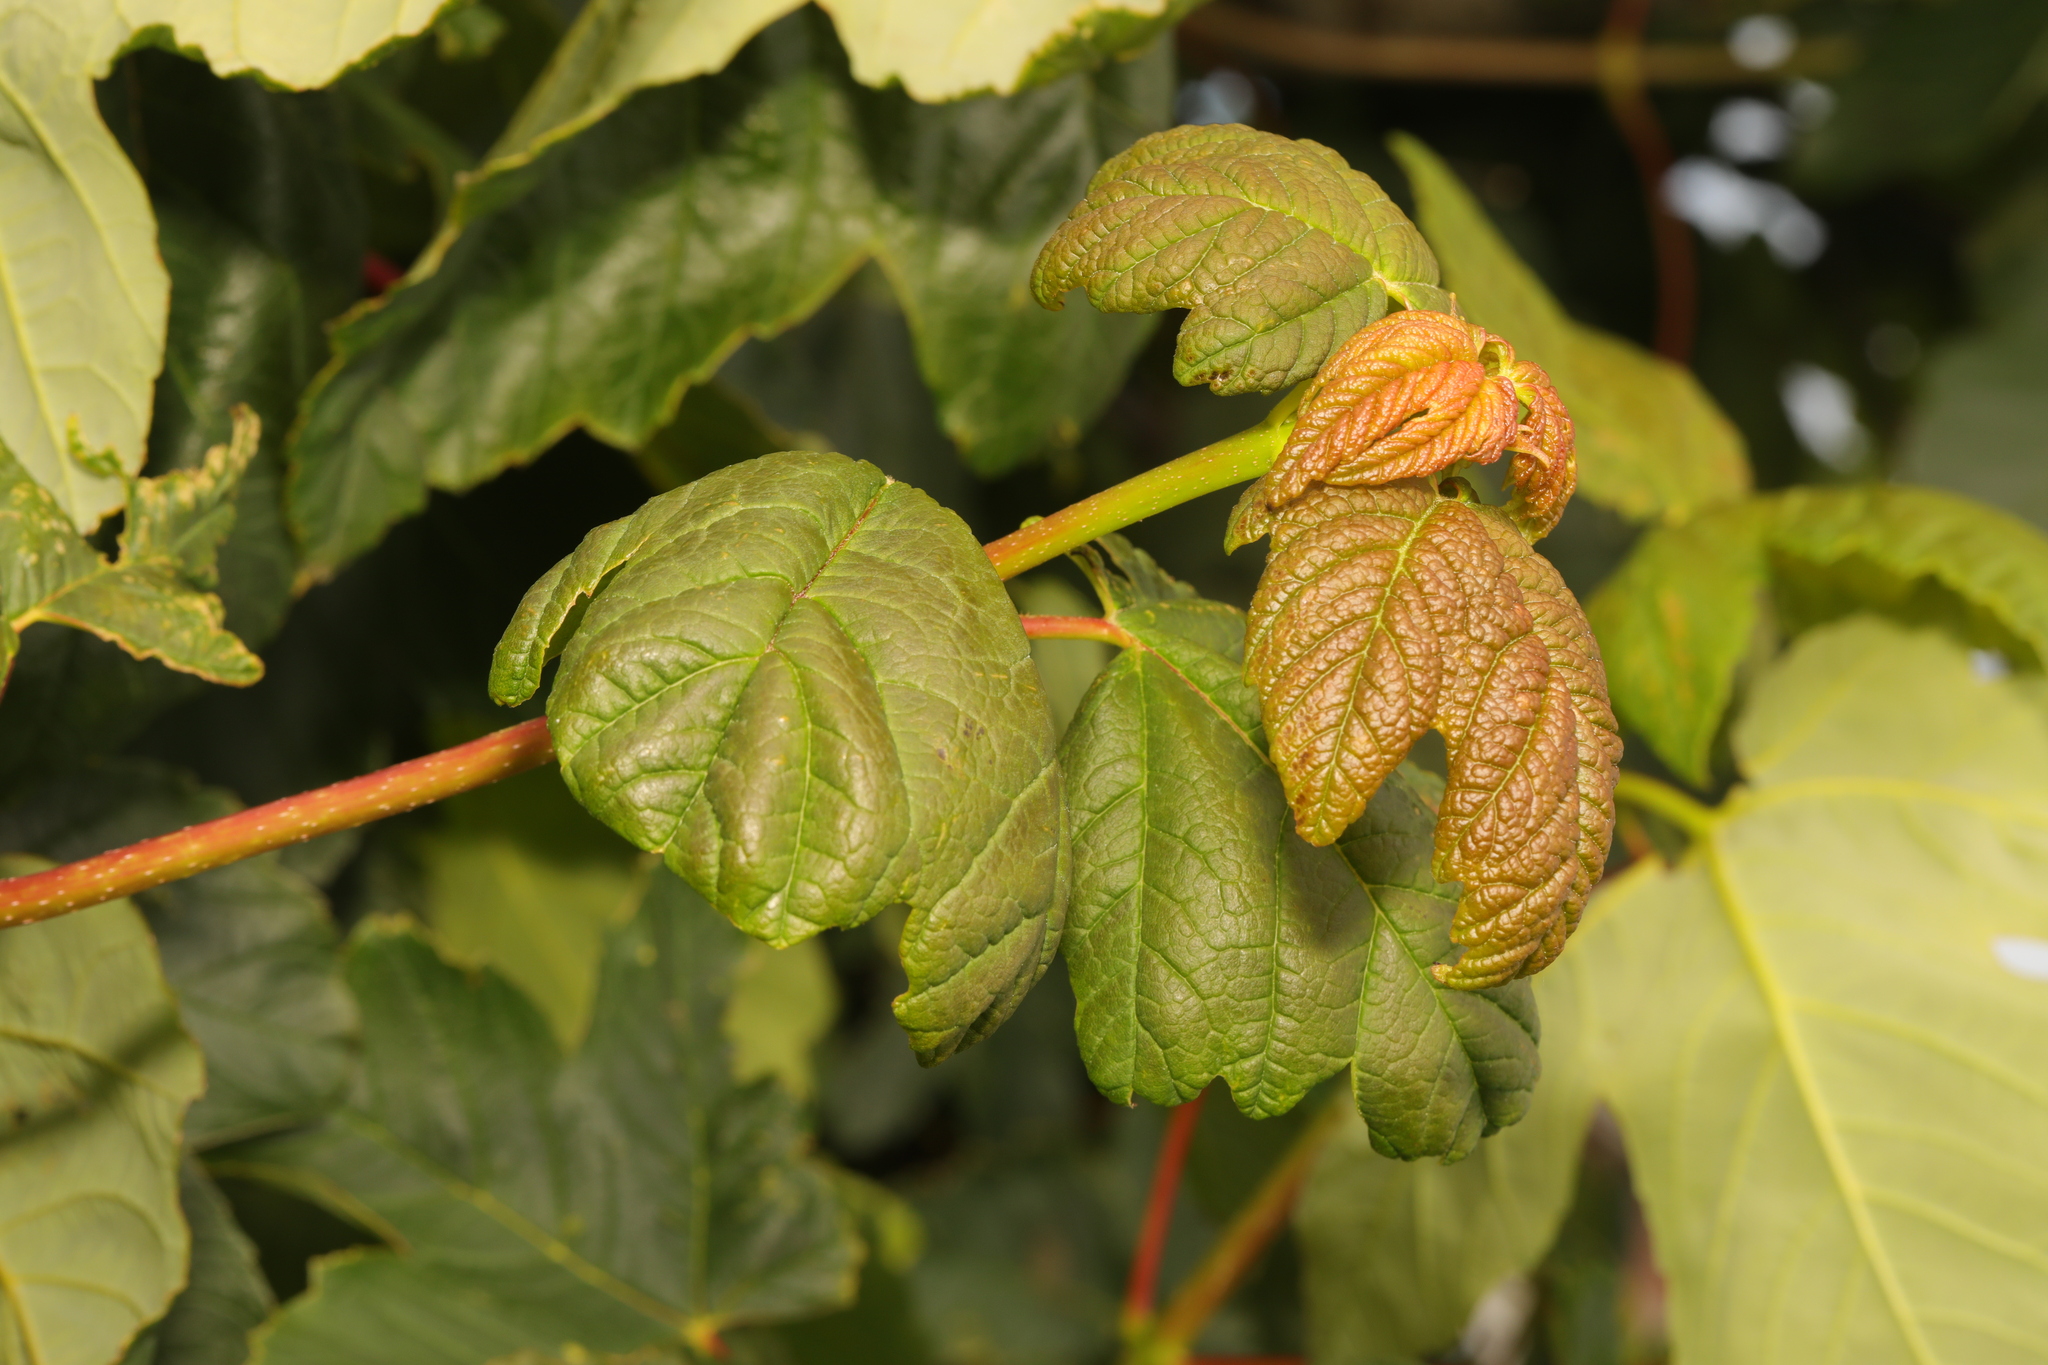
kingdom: Plantae
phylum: Tracheophyta
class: Magnoliopsida
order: Sapindales
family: Sapindaceae
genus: Acer
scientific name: Acer pseudoplatanus
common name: Sycamore
